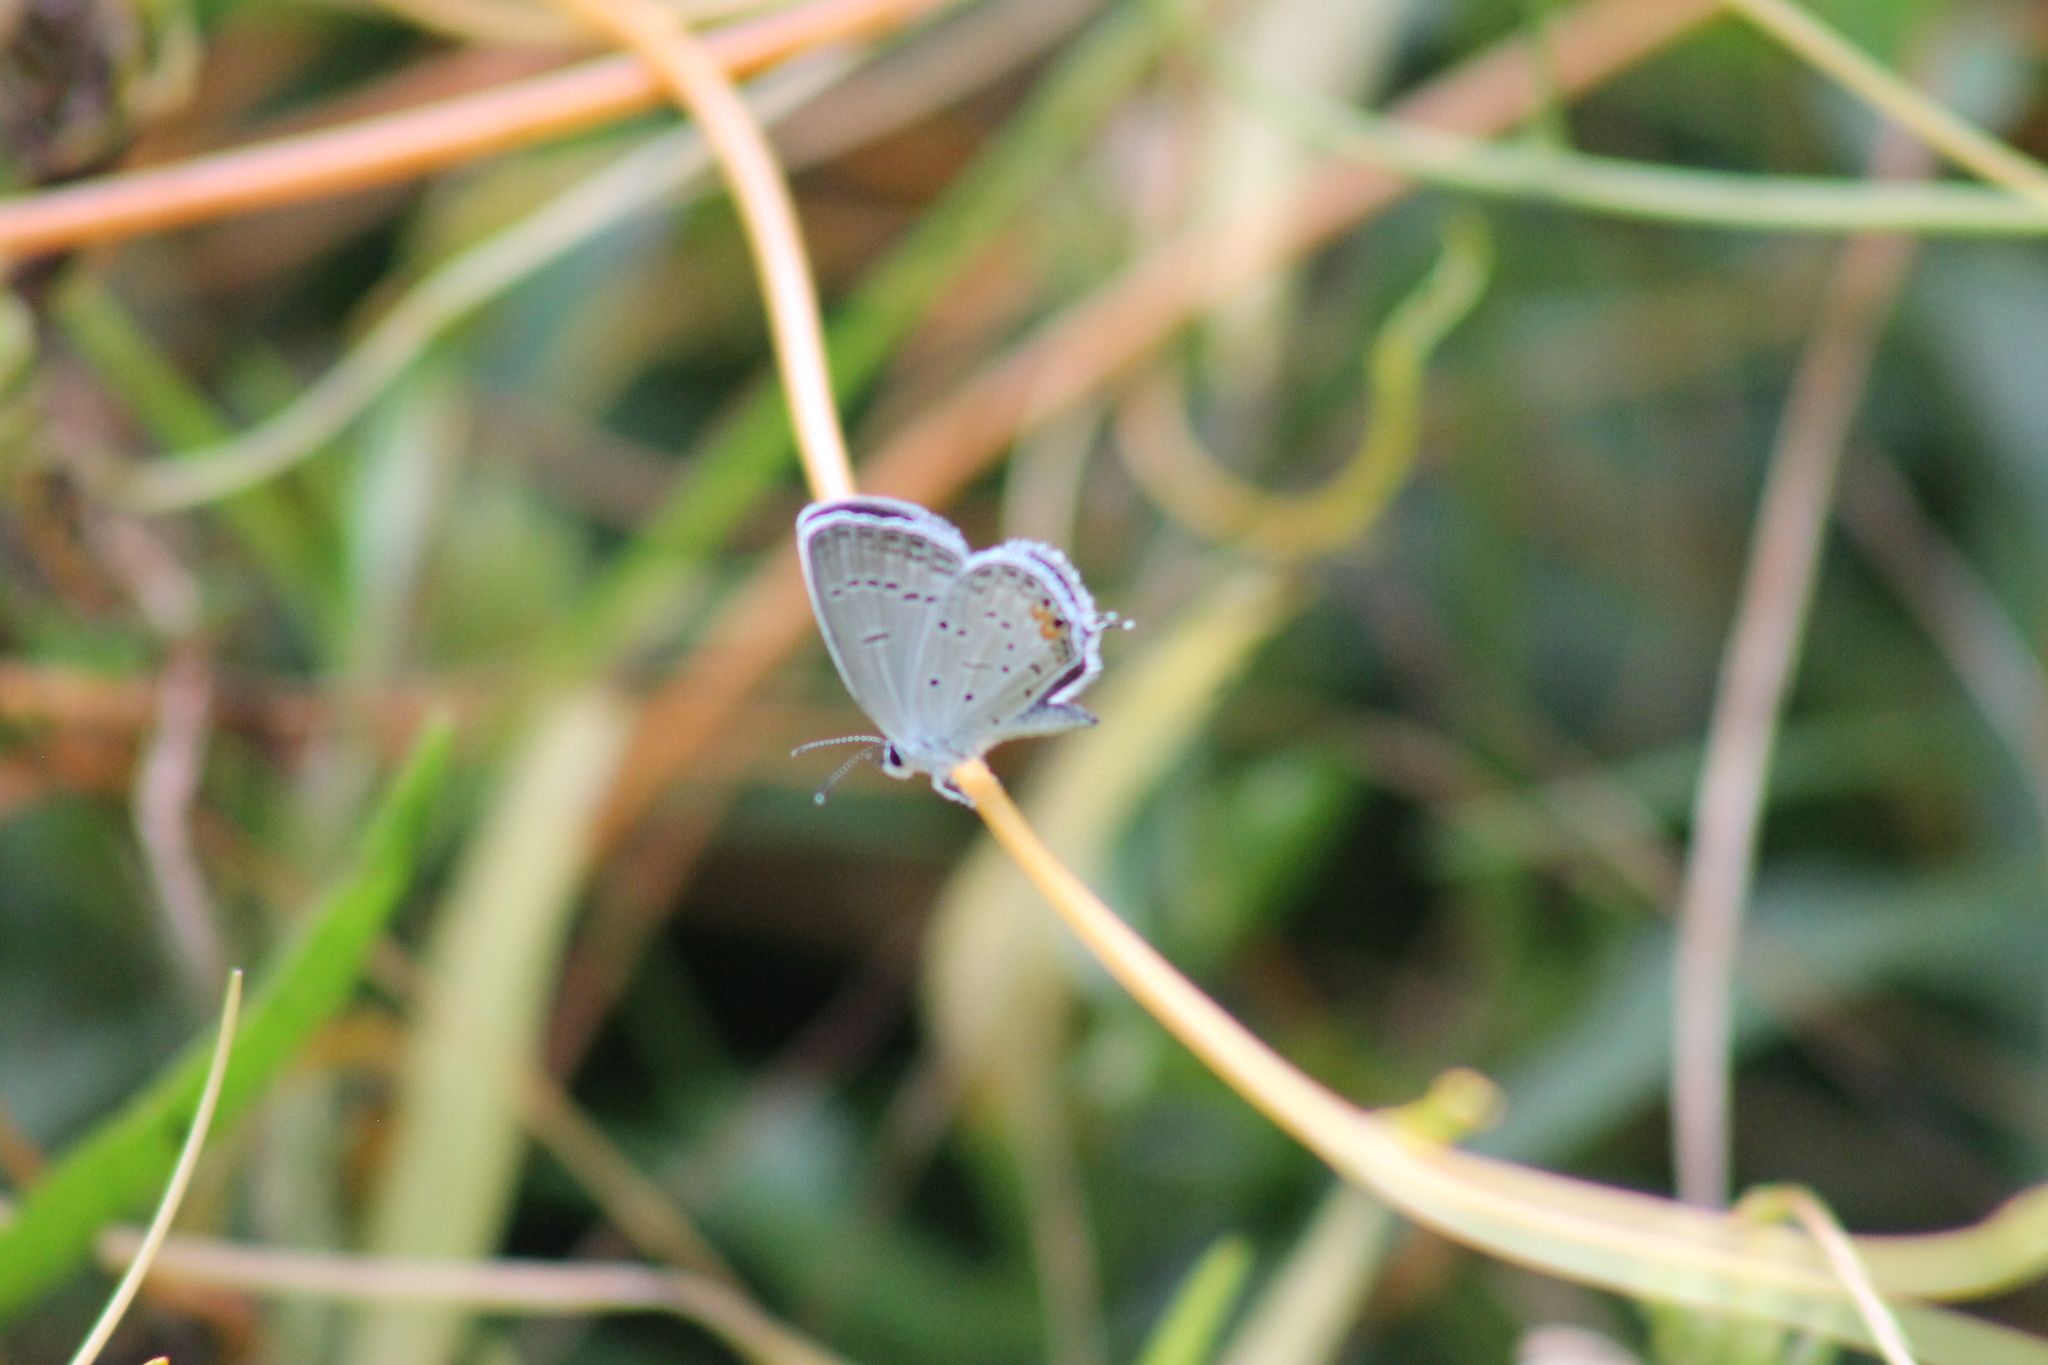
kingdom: Animalia
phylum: Arthropoda
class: Insecta
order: Lepidoptera
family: Lycaenidae
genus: Elkalyce
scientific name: Elkalyce comyntas
